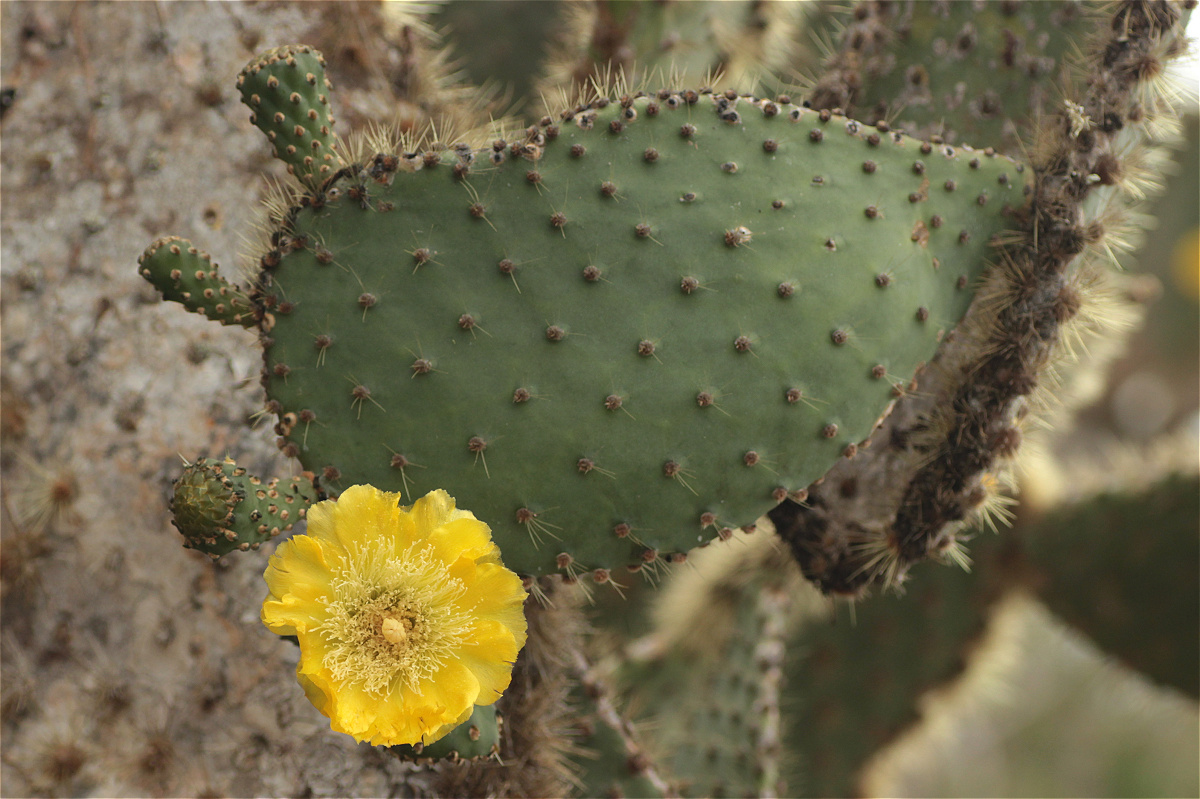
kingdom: Plantae
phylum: Tracheophyta
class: Magnoliopsida
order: Caryophyllales
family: Cactaceae
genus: Opuntia
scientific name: Opuntia galapageia
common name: Galápagos prickly pear
